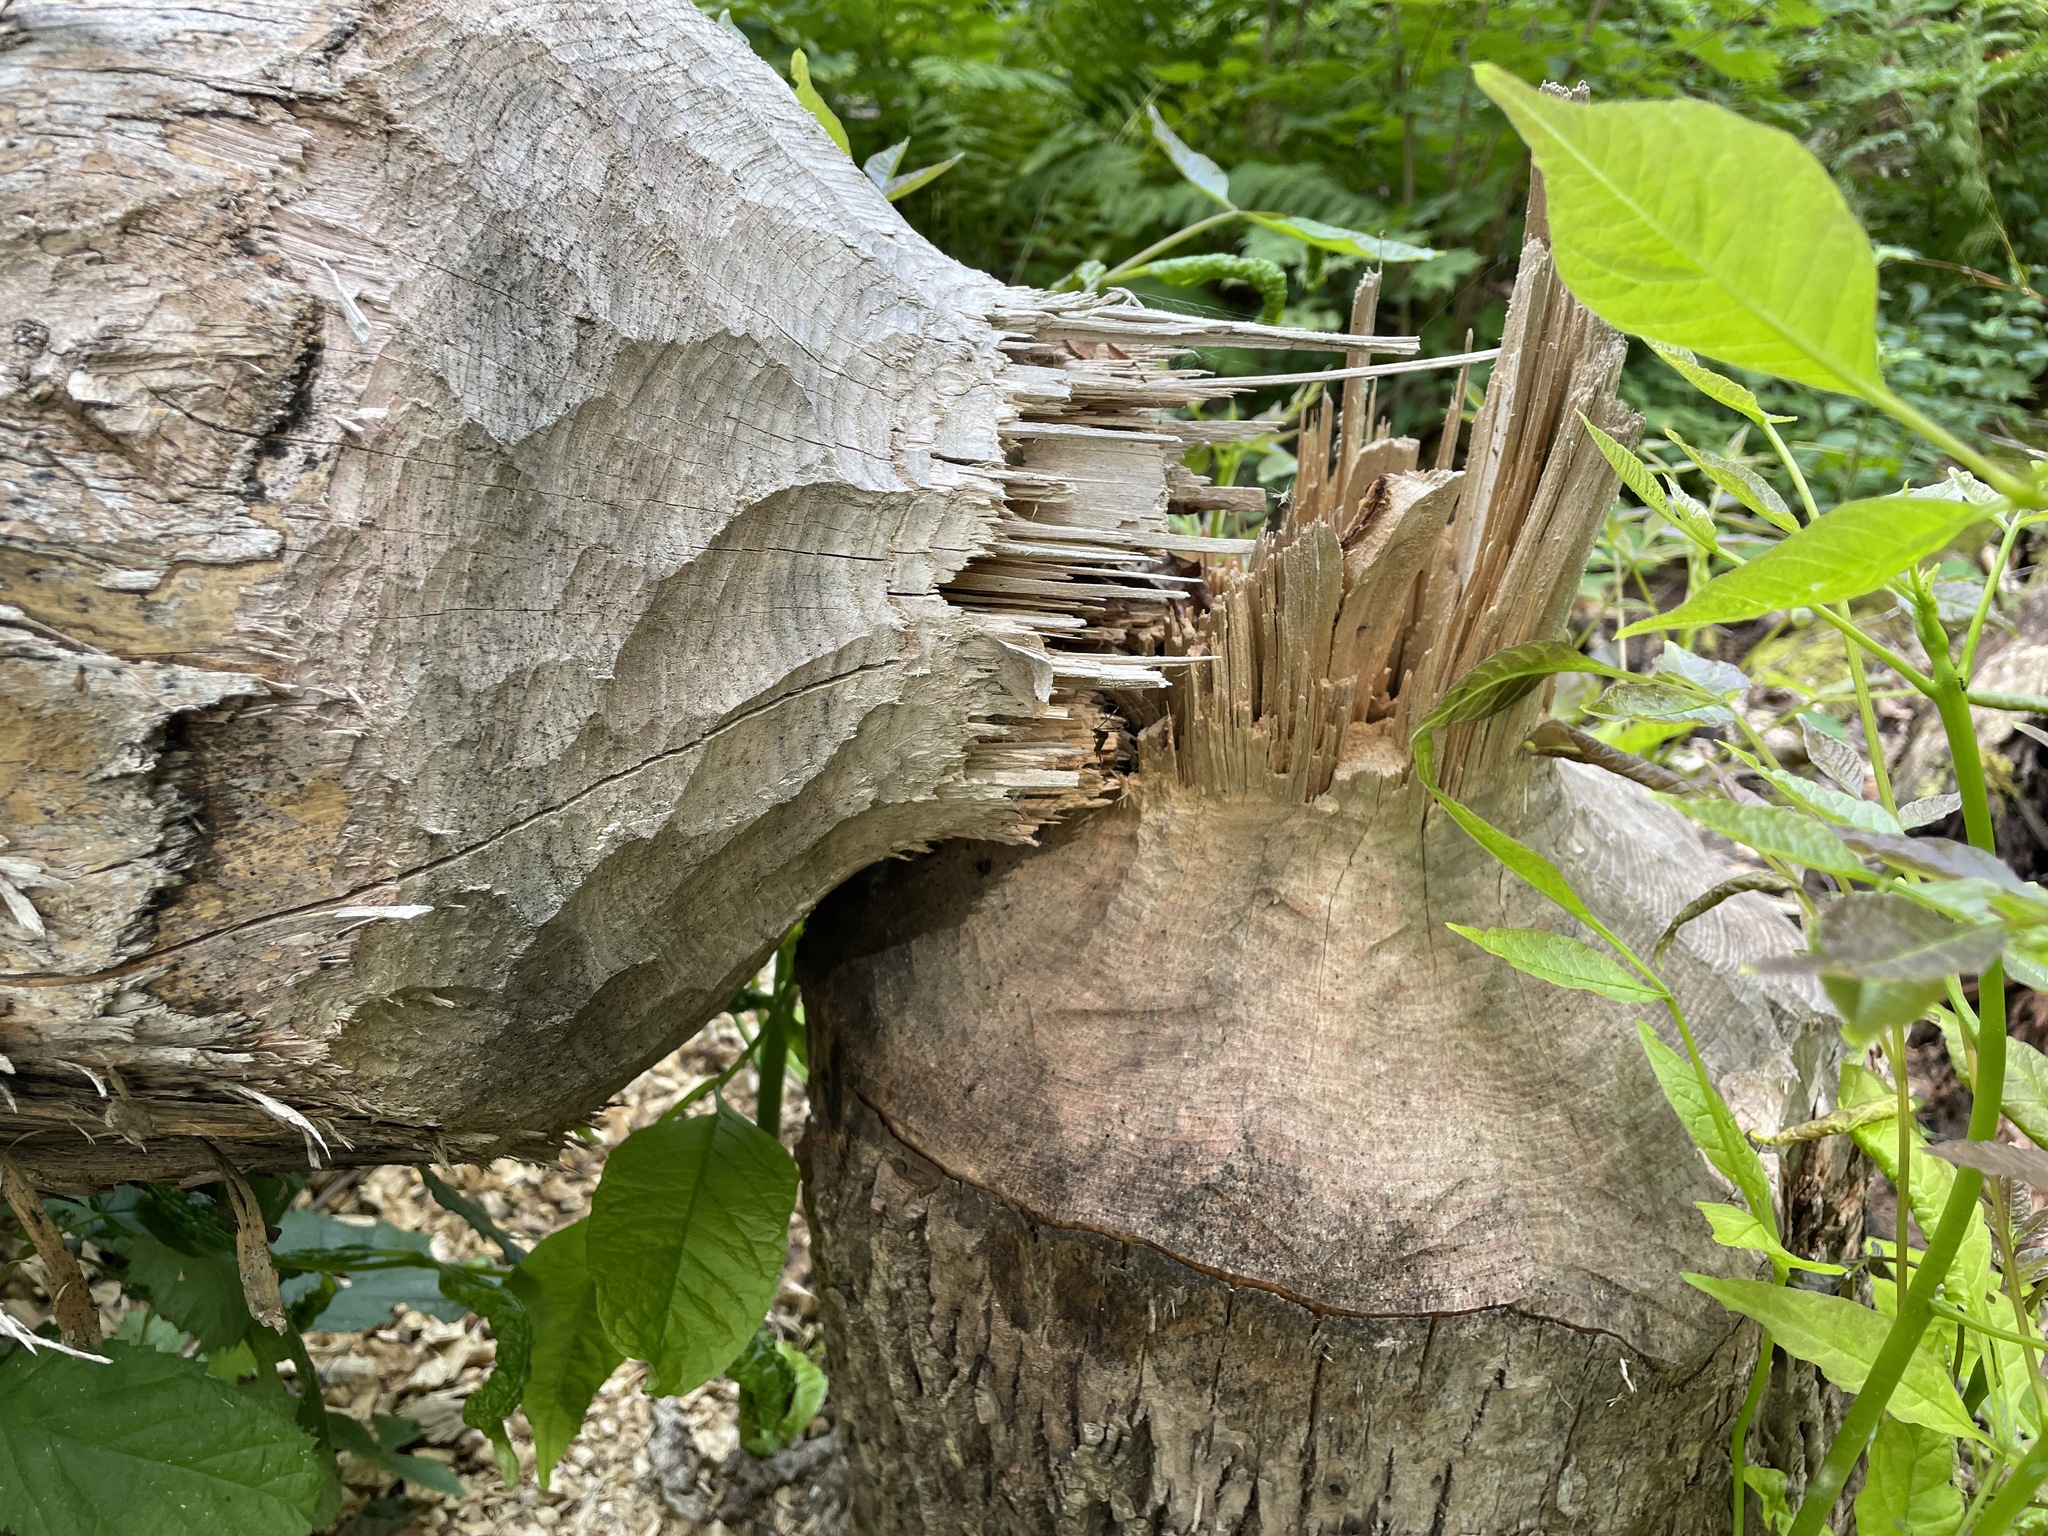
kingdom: Animalia
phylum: Chordata
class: Mammalia
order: Rodentia
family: Castoridae
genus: Castor
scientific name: Castor canadensis
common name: American beaver
